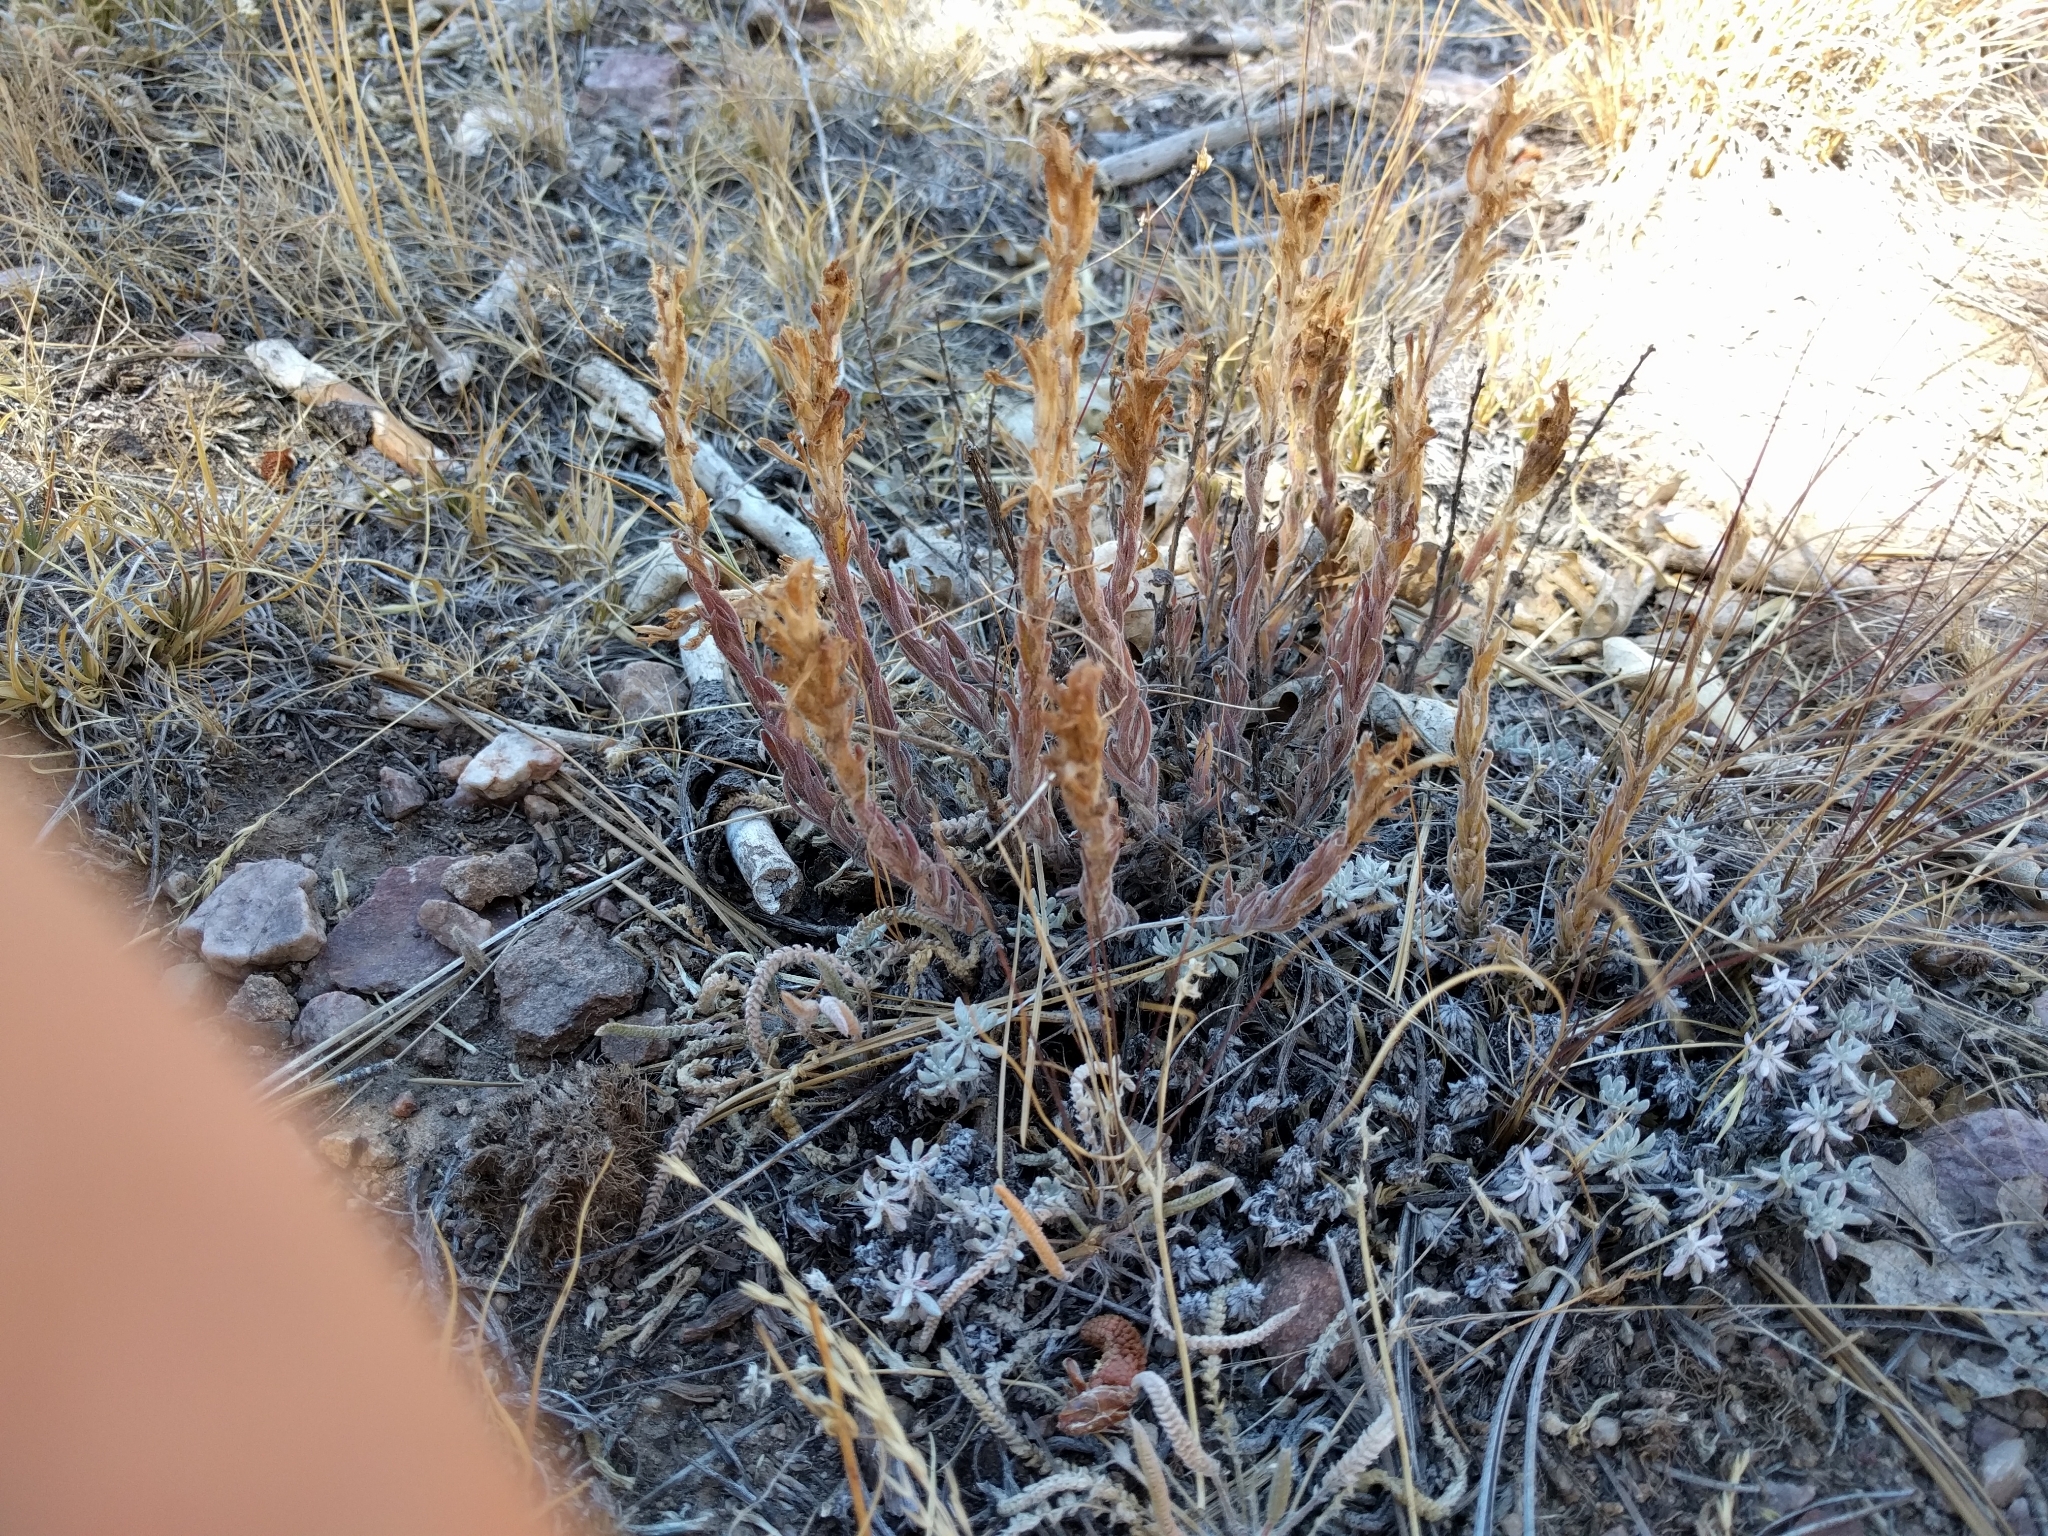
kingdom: Plantae
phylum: Tracheophyta
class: Magnoliopsida
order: Lamiales
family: Orobanchaceae
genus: Castilleja
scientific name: Castilleja cinerea
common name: Ash-gray indian paintbrush
